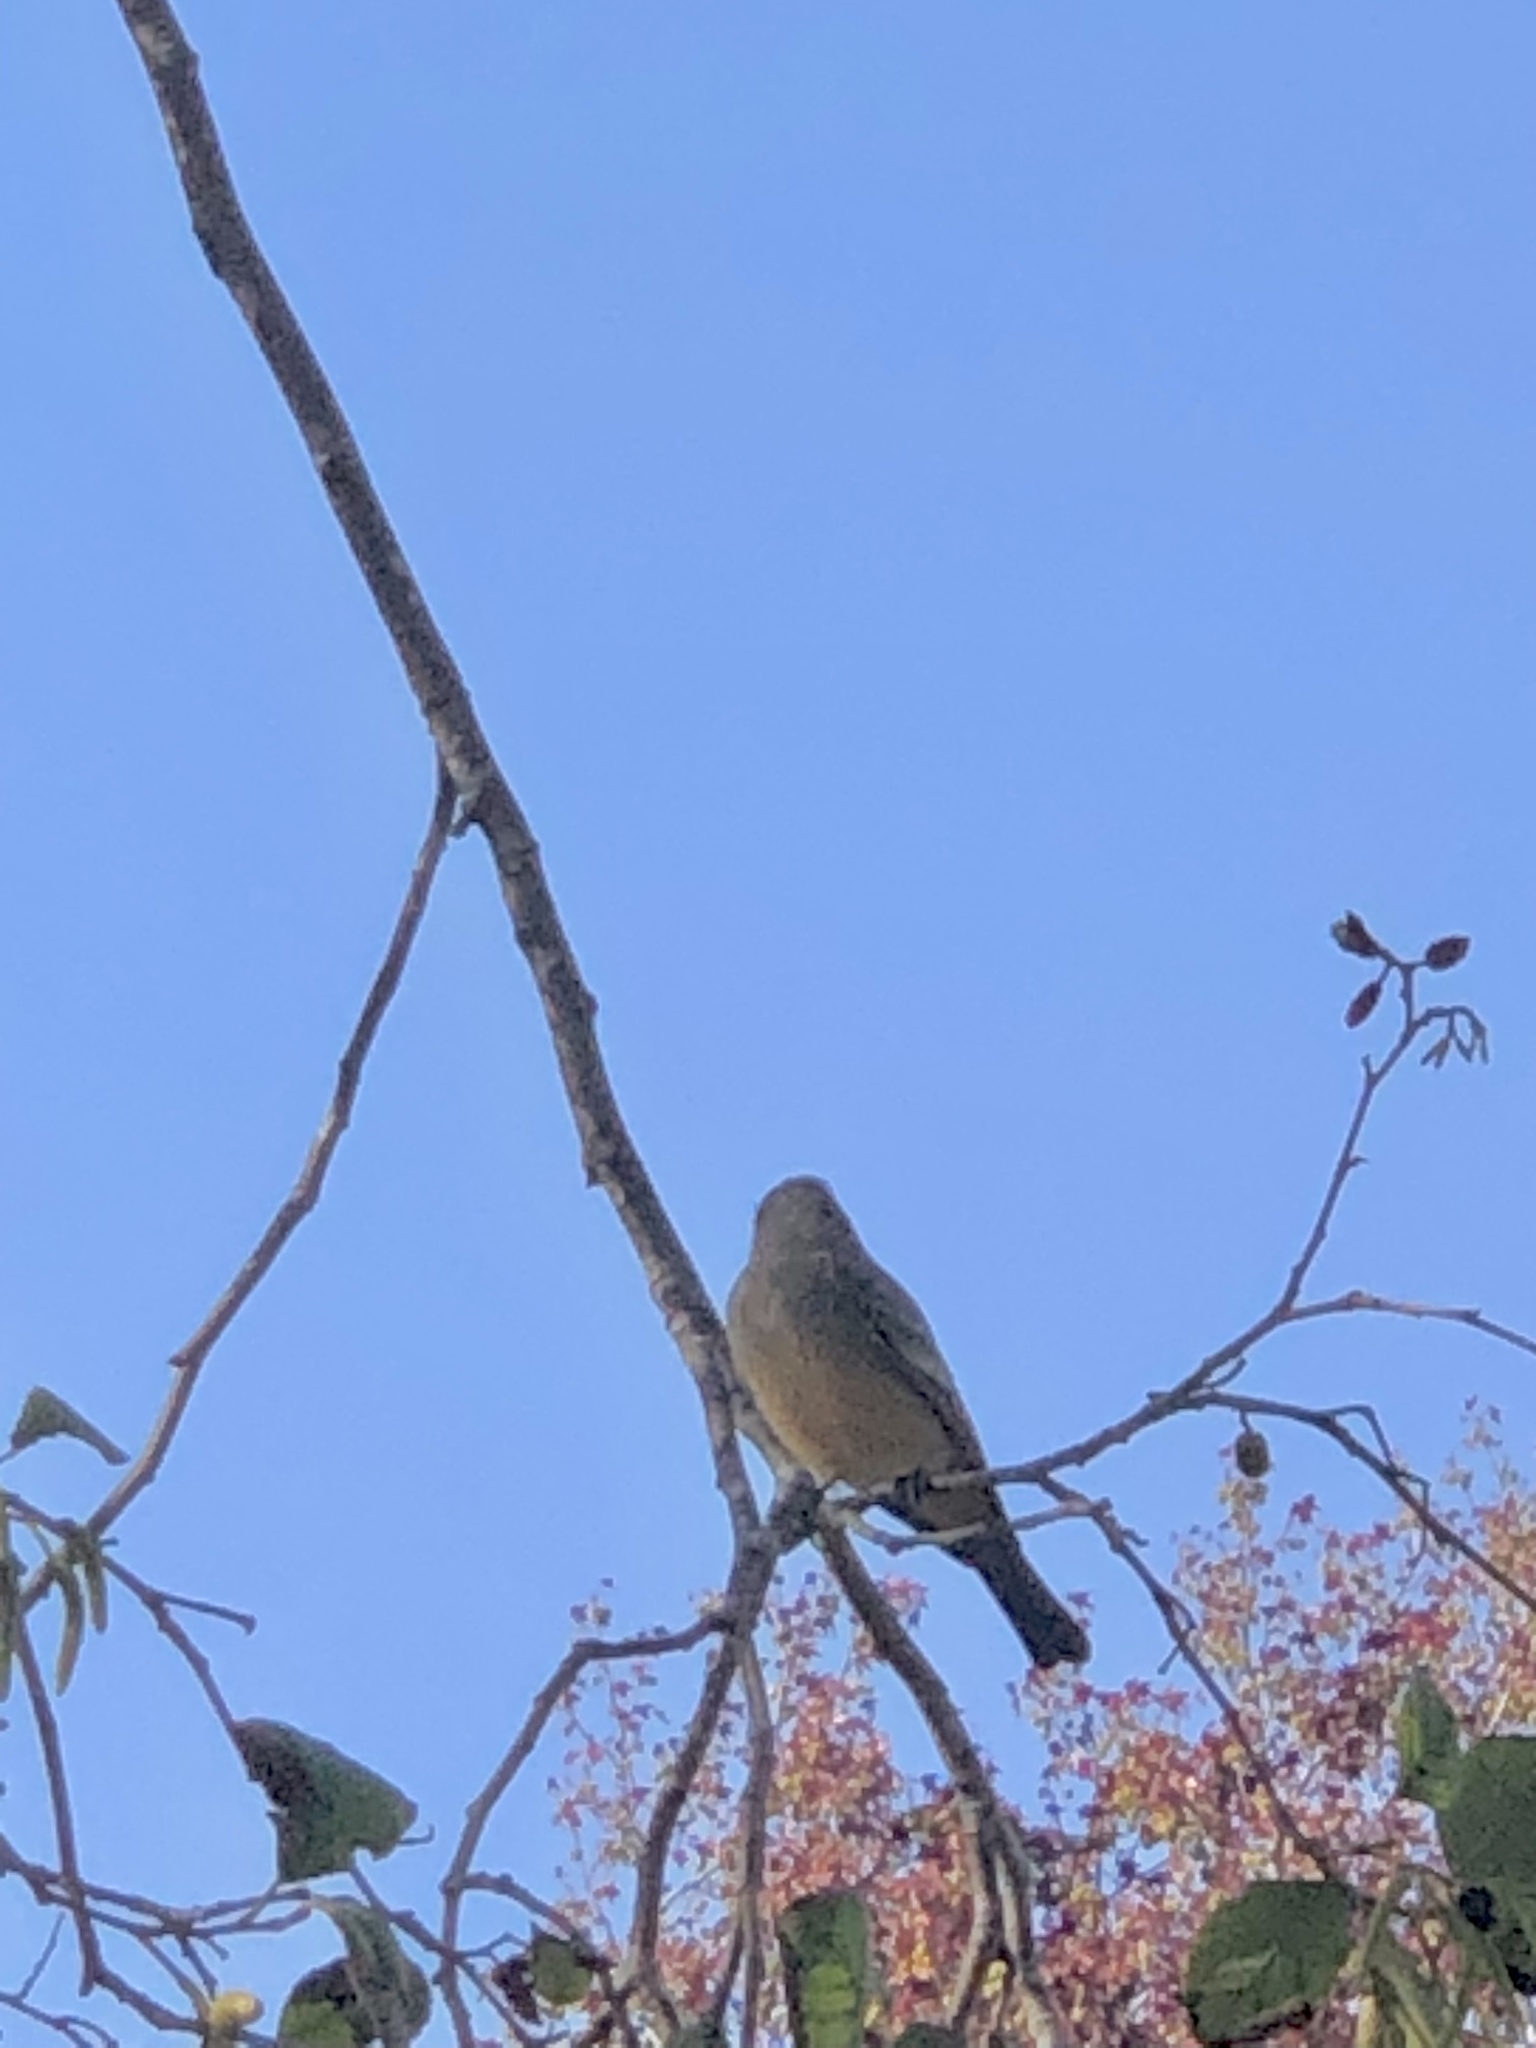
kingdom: Animalia
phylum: Chordata
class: Aves
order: Passeriformes
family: Tyrannidae
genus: Sayornis
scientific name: Sayornis saya
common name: Say's phoebe
